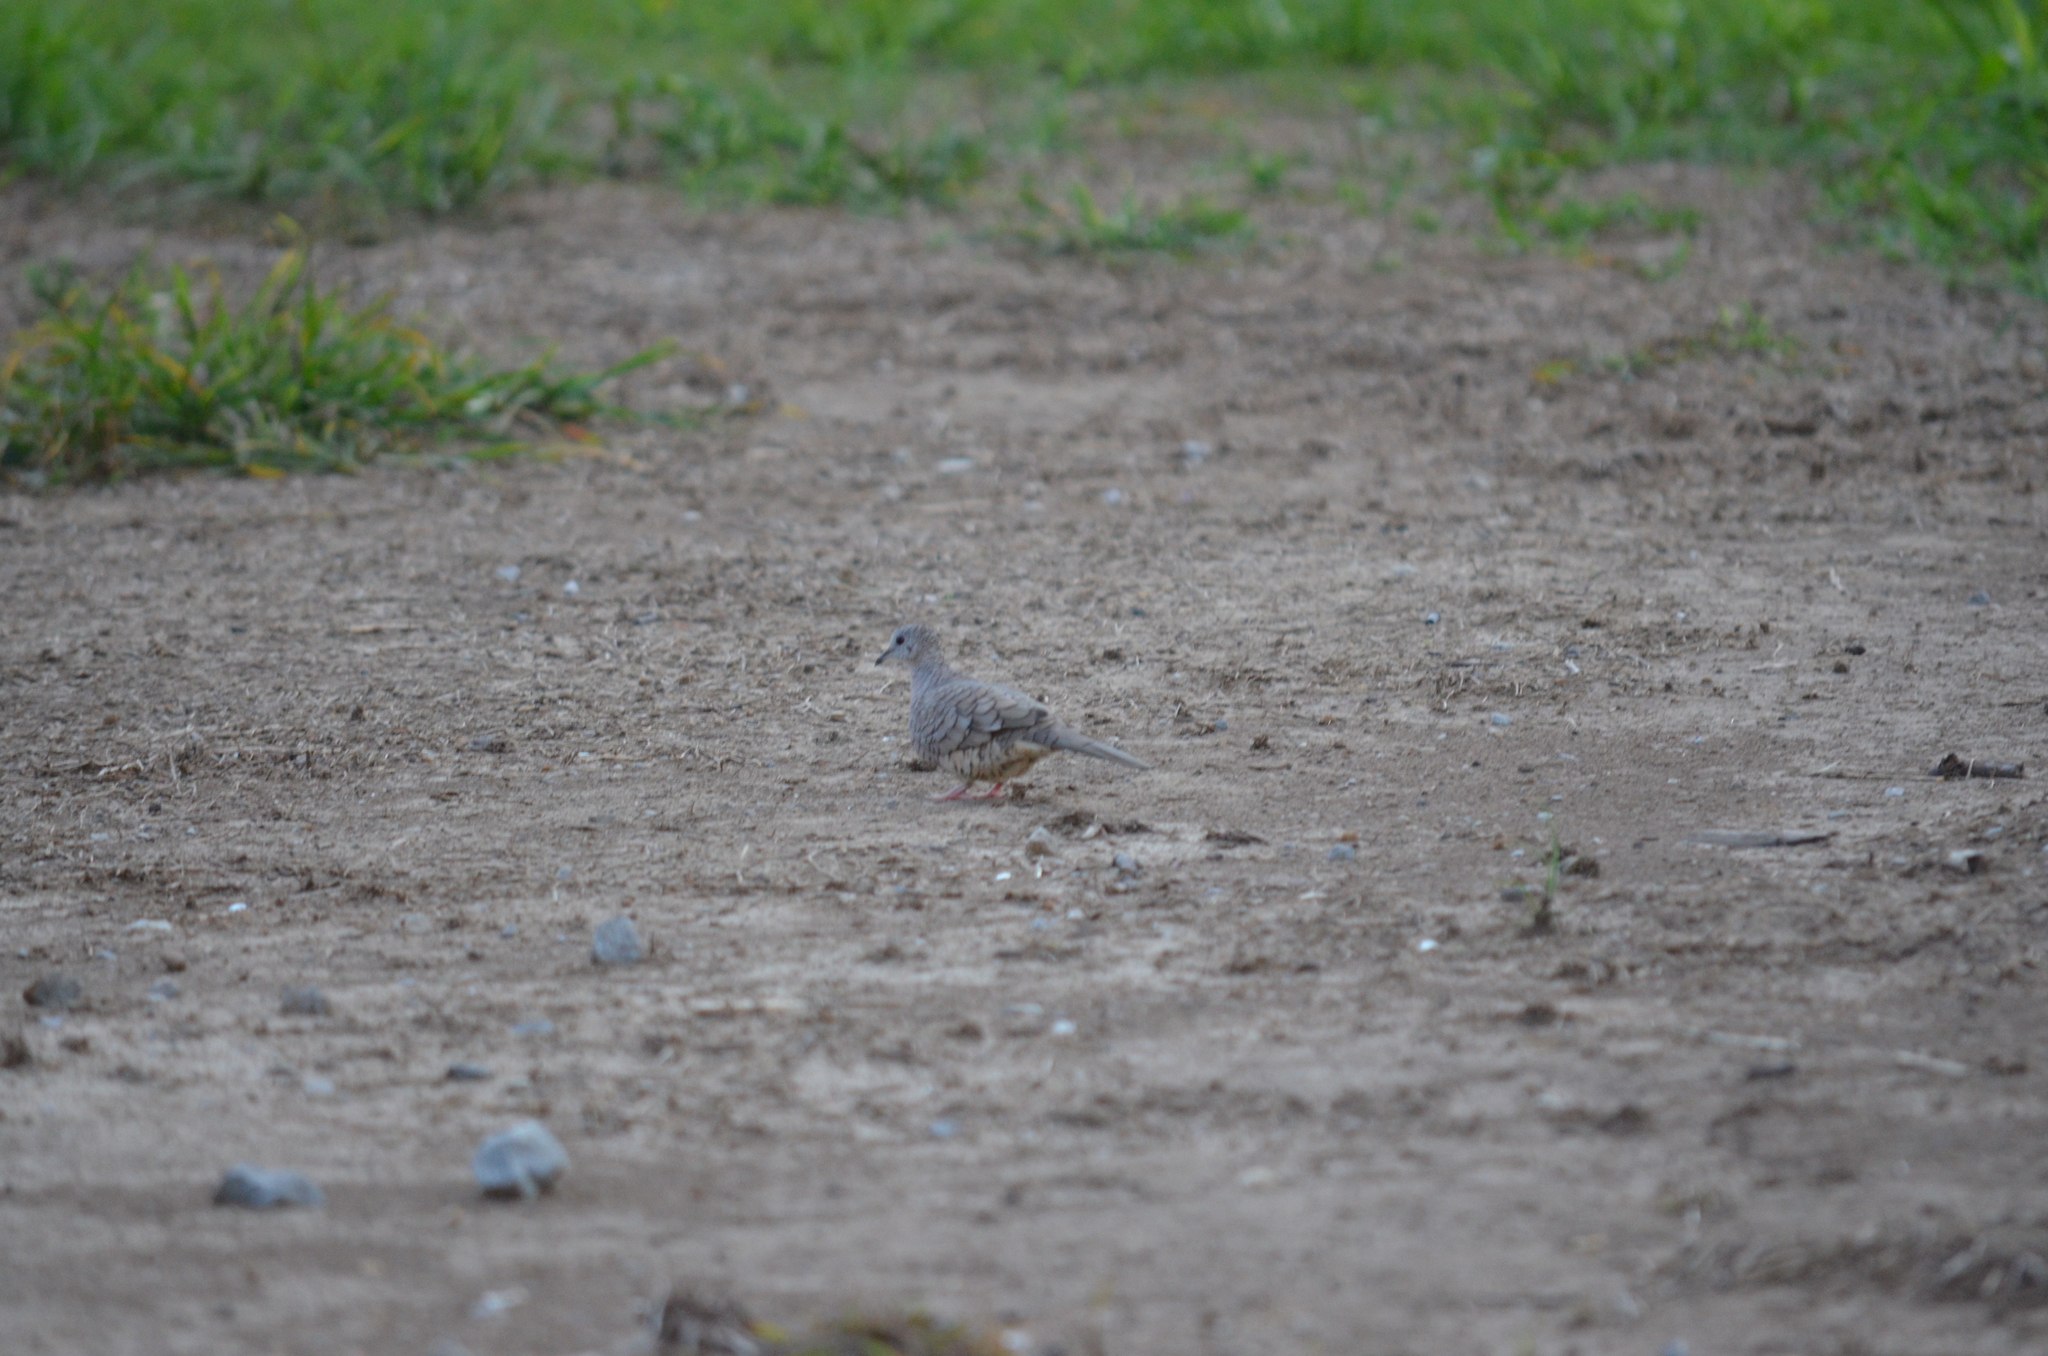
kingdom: Animalia
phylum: Chordata
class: Aves
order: Columbiformes
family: Columbidae
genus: Columbina
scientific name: Columbina inca
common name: Inca dove
